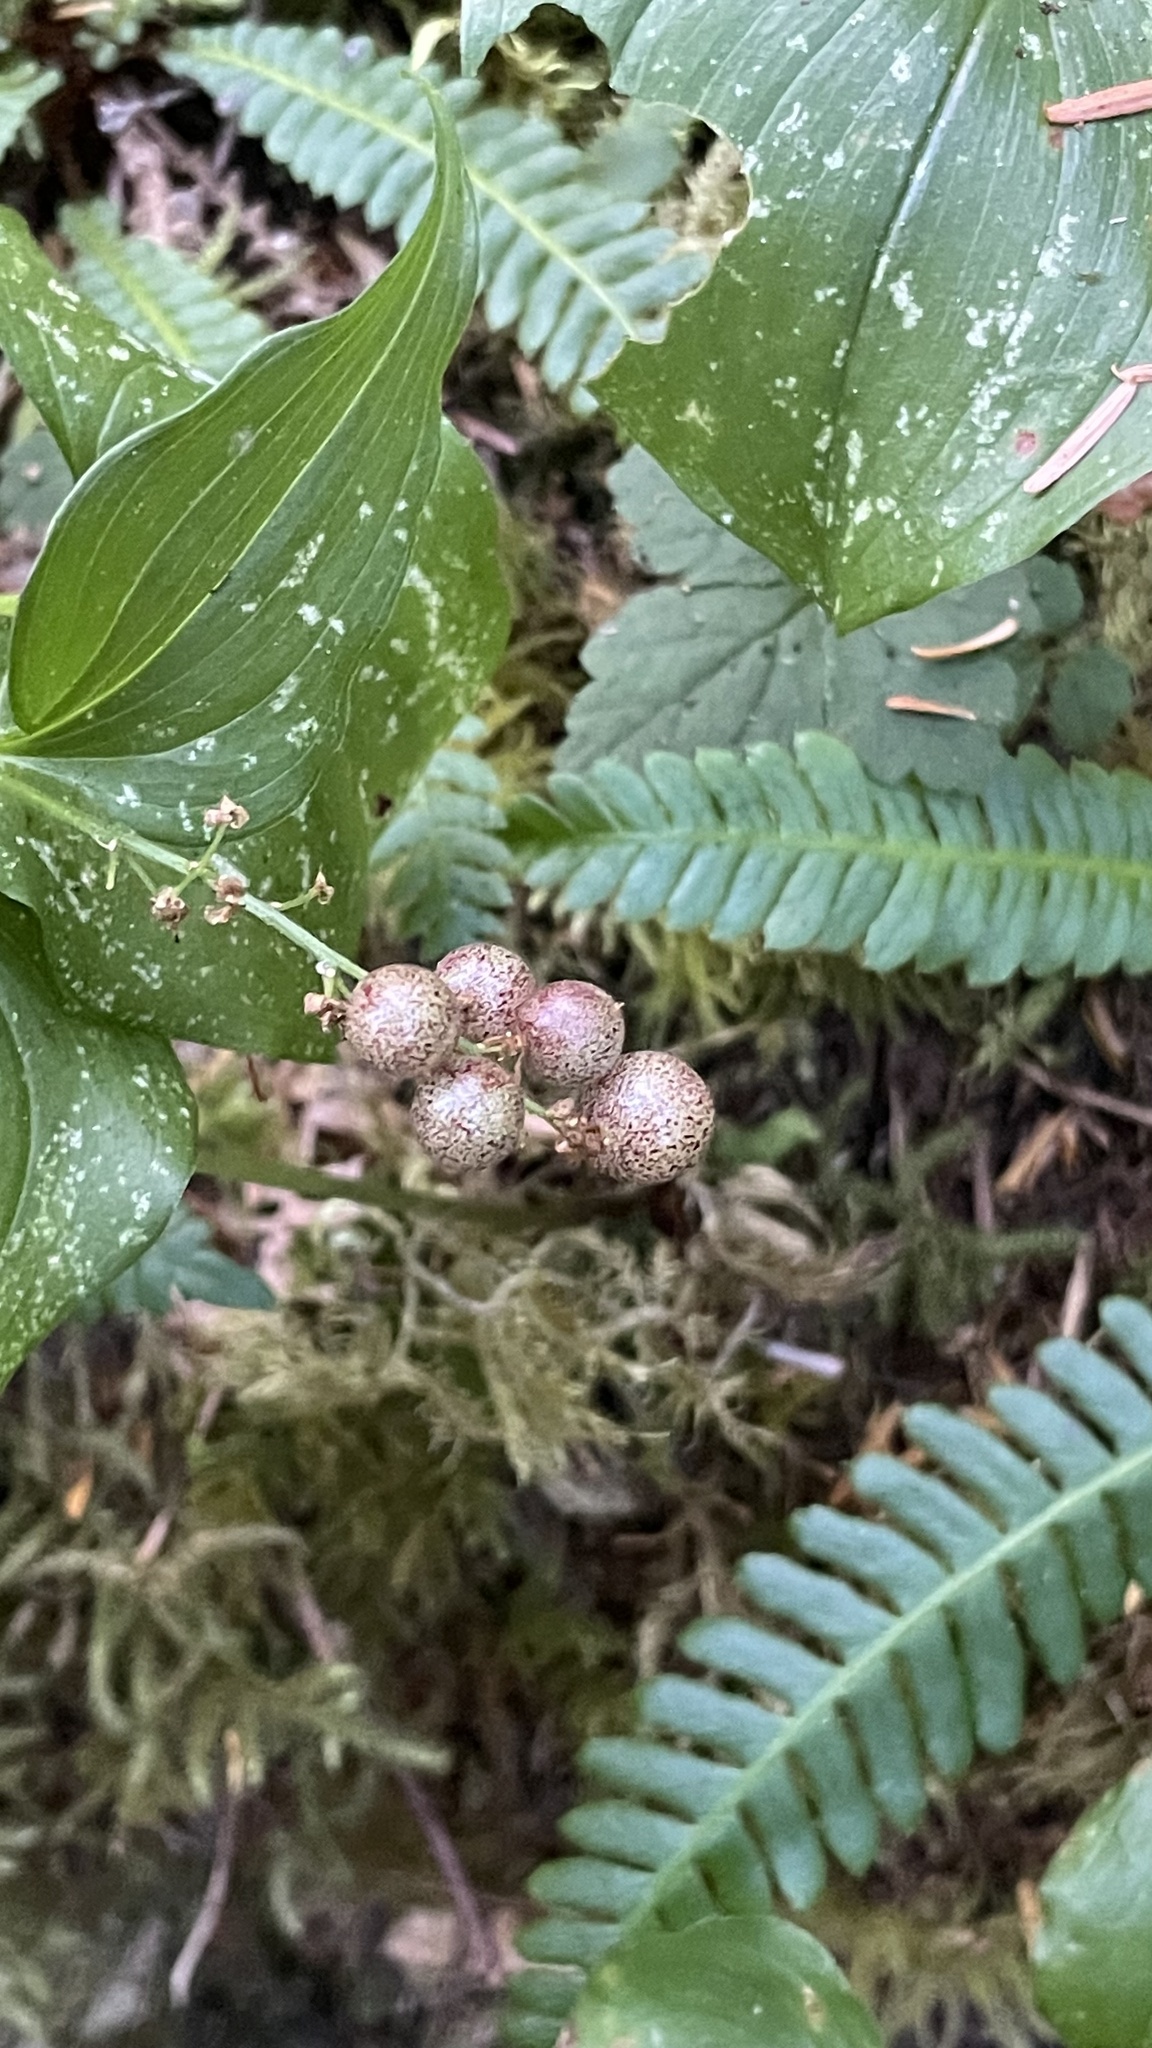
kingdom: Plantae
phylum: Tracheophyta
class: Liliopsida
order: Asparagales
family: Asparagaceae
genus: Maianthemum
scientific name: Maianthemum dilatatum
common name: False lily-of-the-valley
